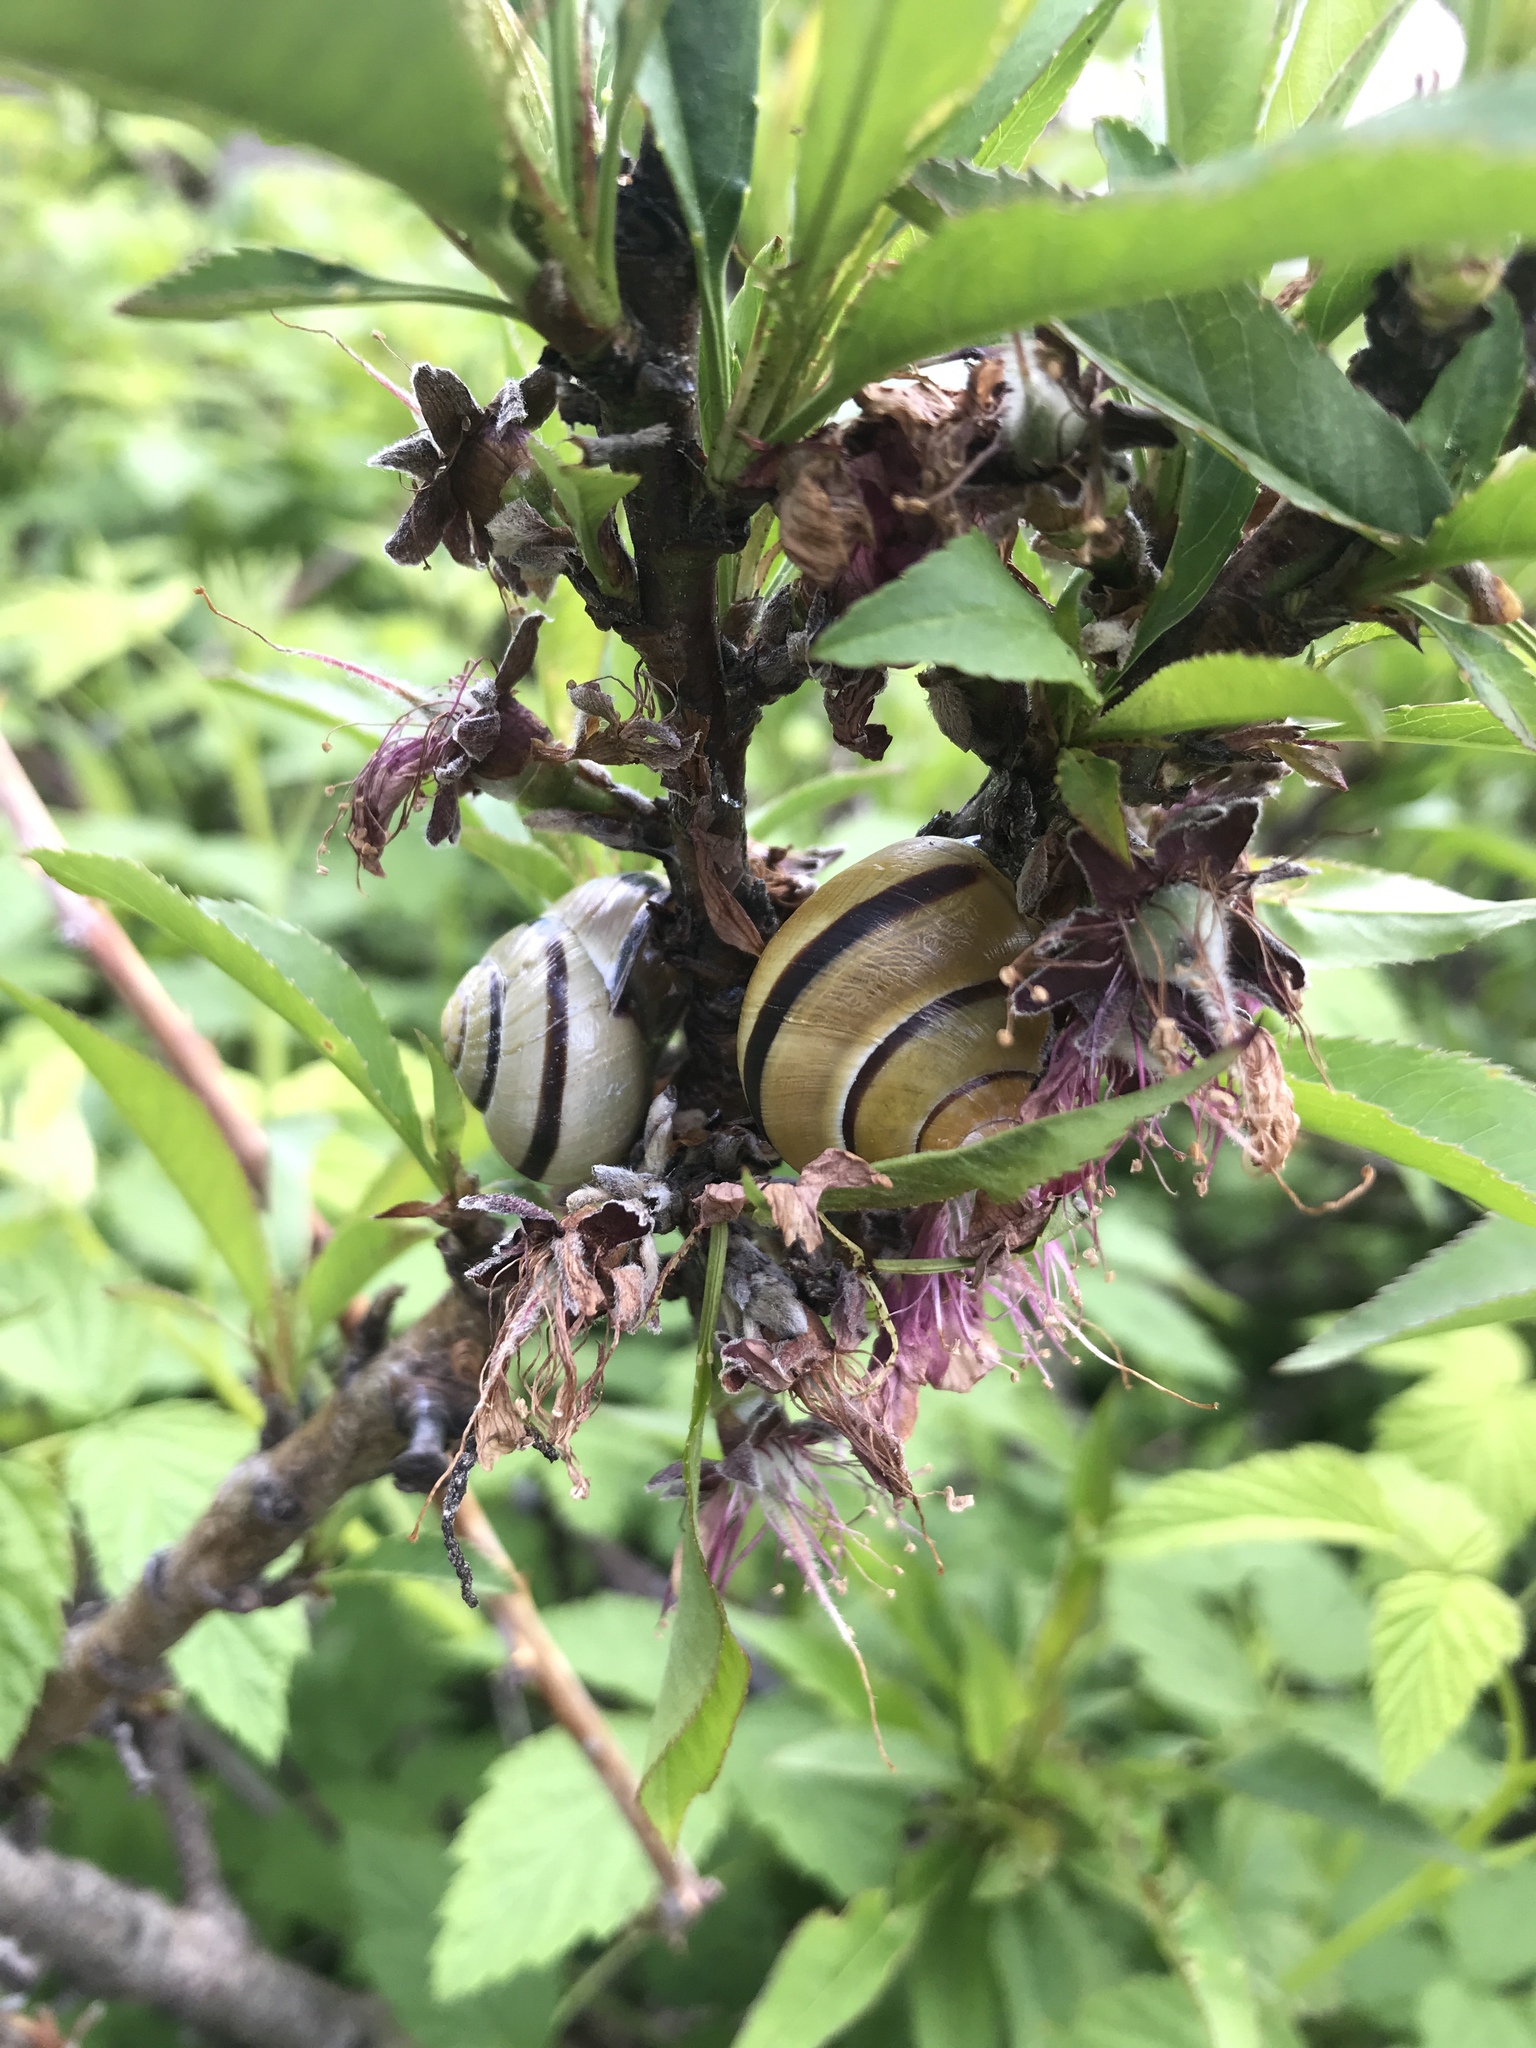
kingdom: Animalia
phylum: Mollusca
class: Gastropoda
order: Stylommatophora
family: Helicidae
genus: Cepaea
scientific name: Cepaea nemoralis
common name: Grovesnail
